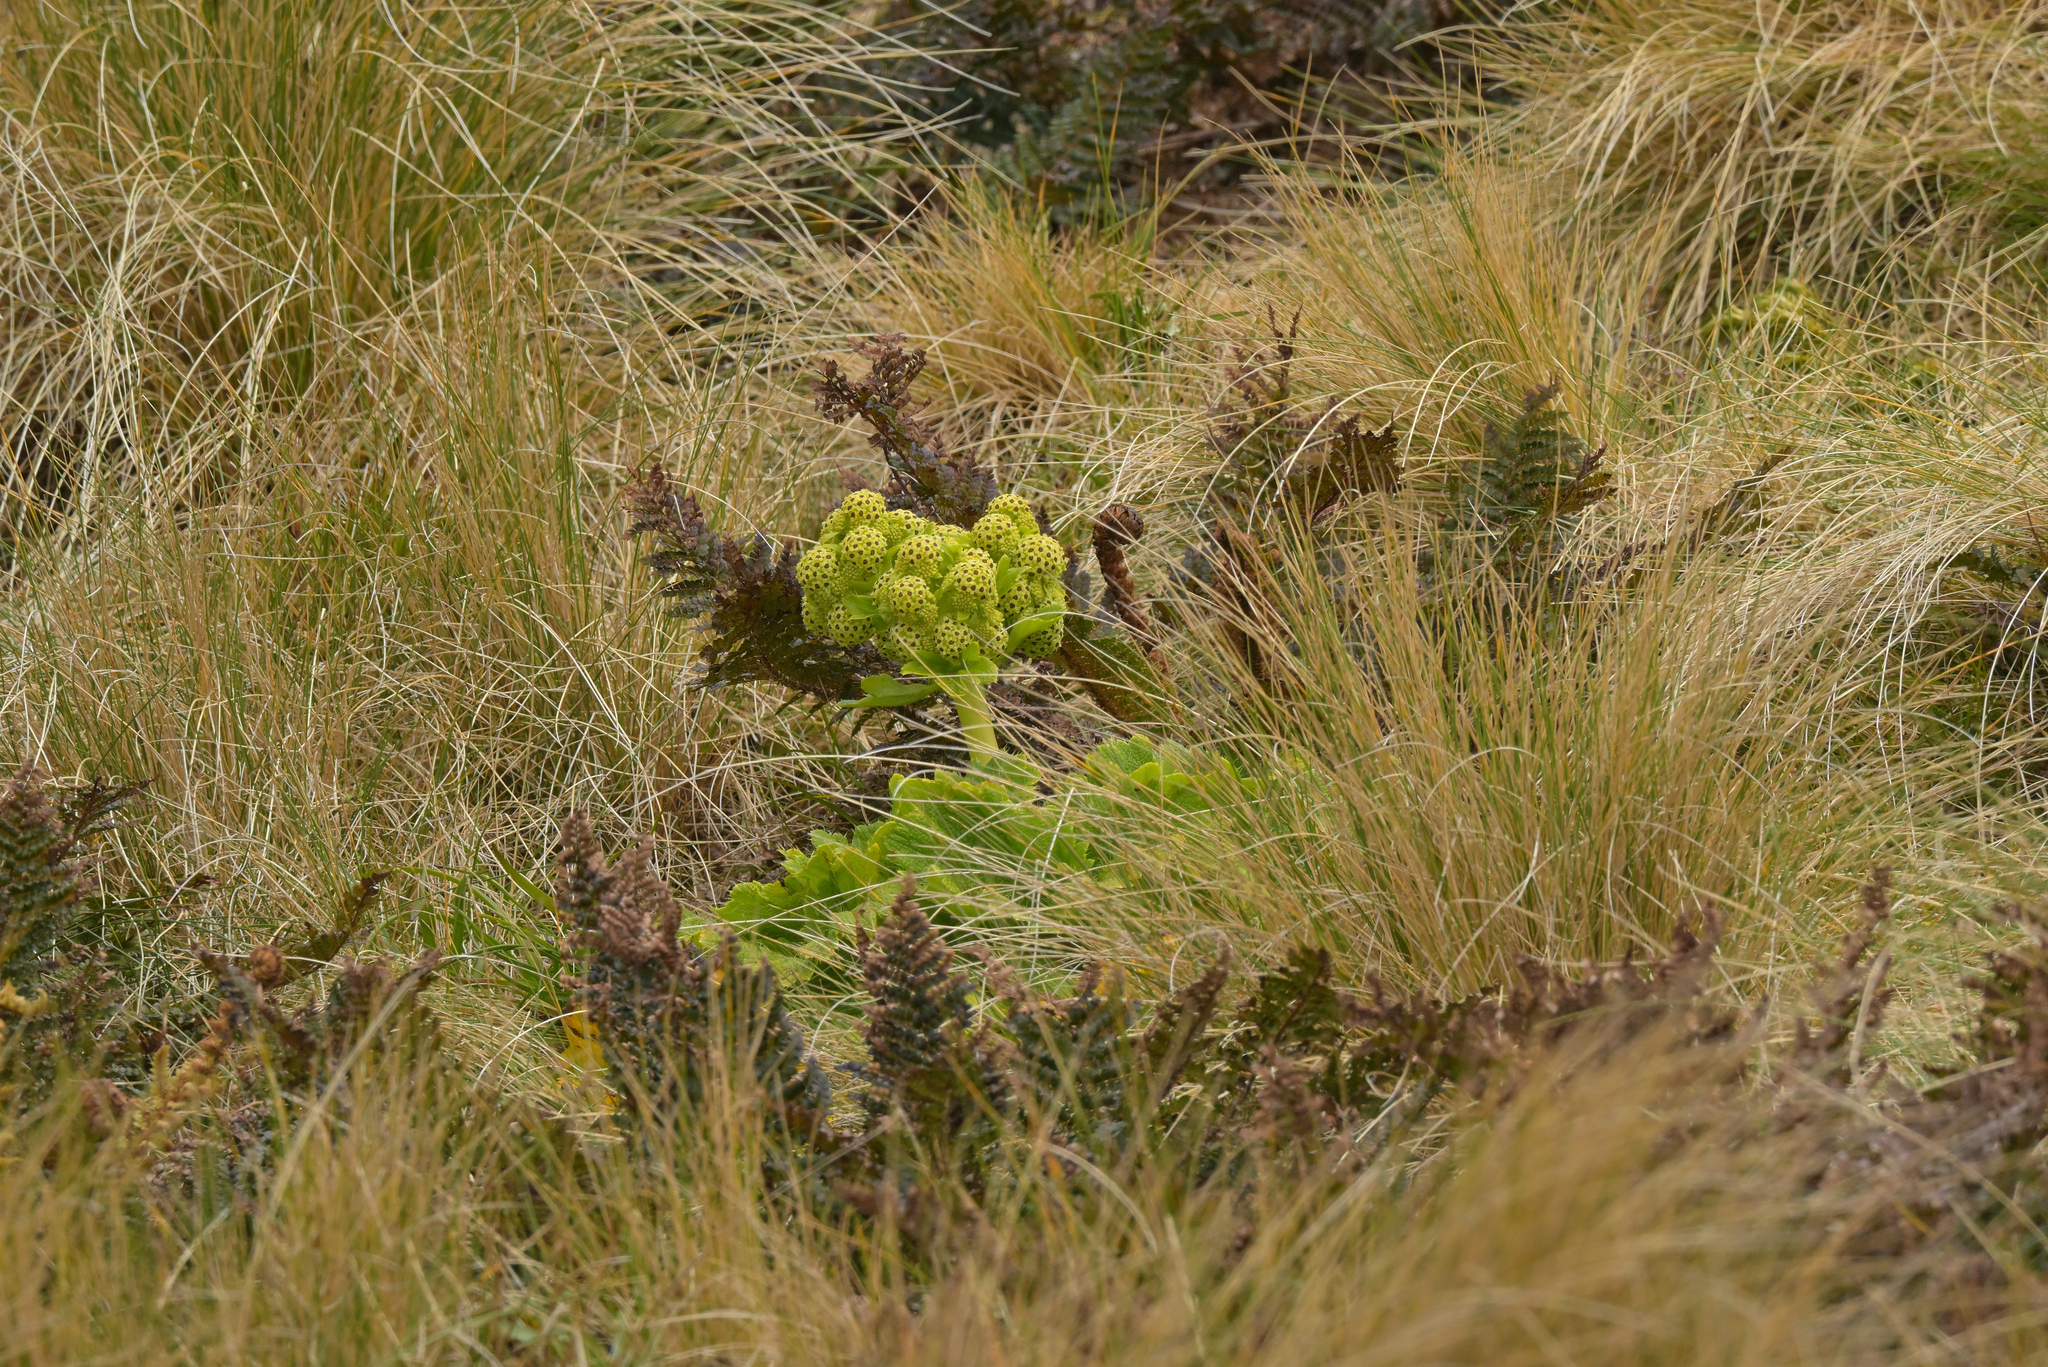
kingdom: Plantae
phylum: Tracheophyta
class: Magnoliopsida
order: Apiales
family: Apiaceae
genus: Azorella
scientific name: Azorella polaris
